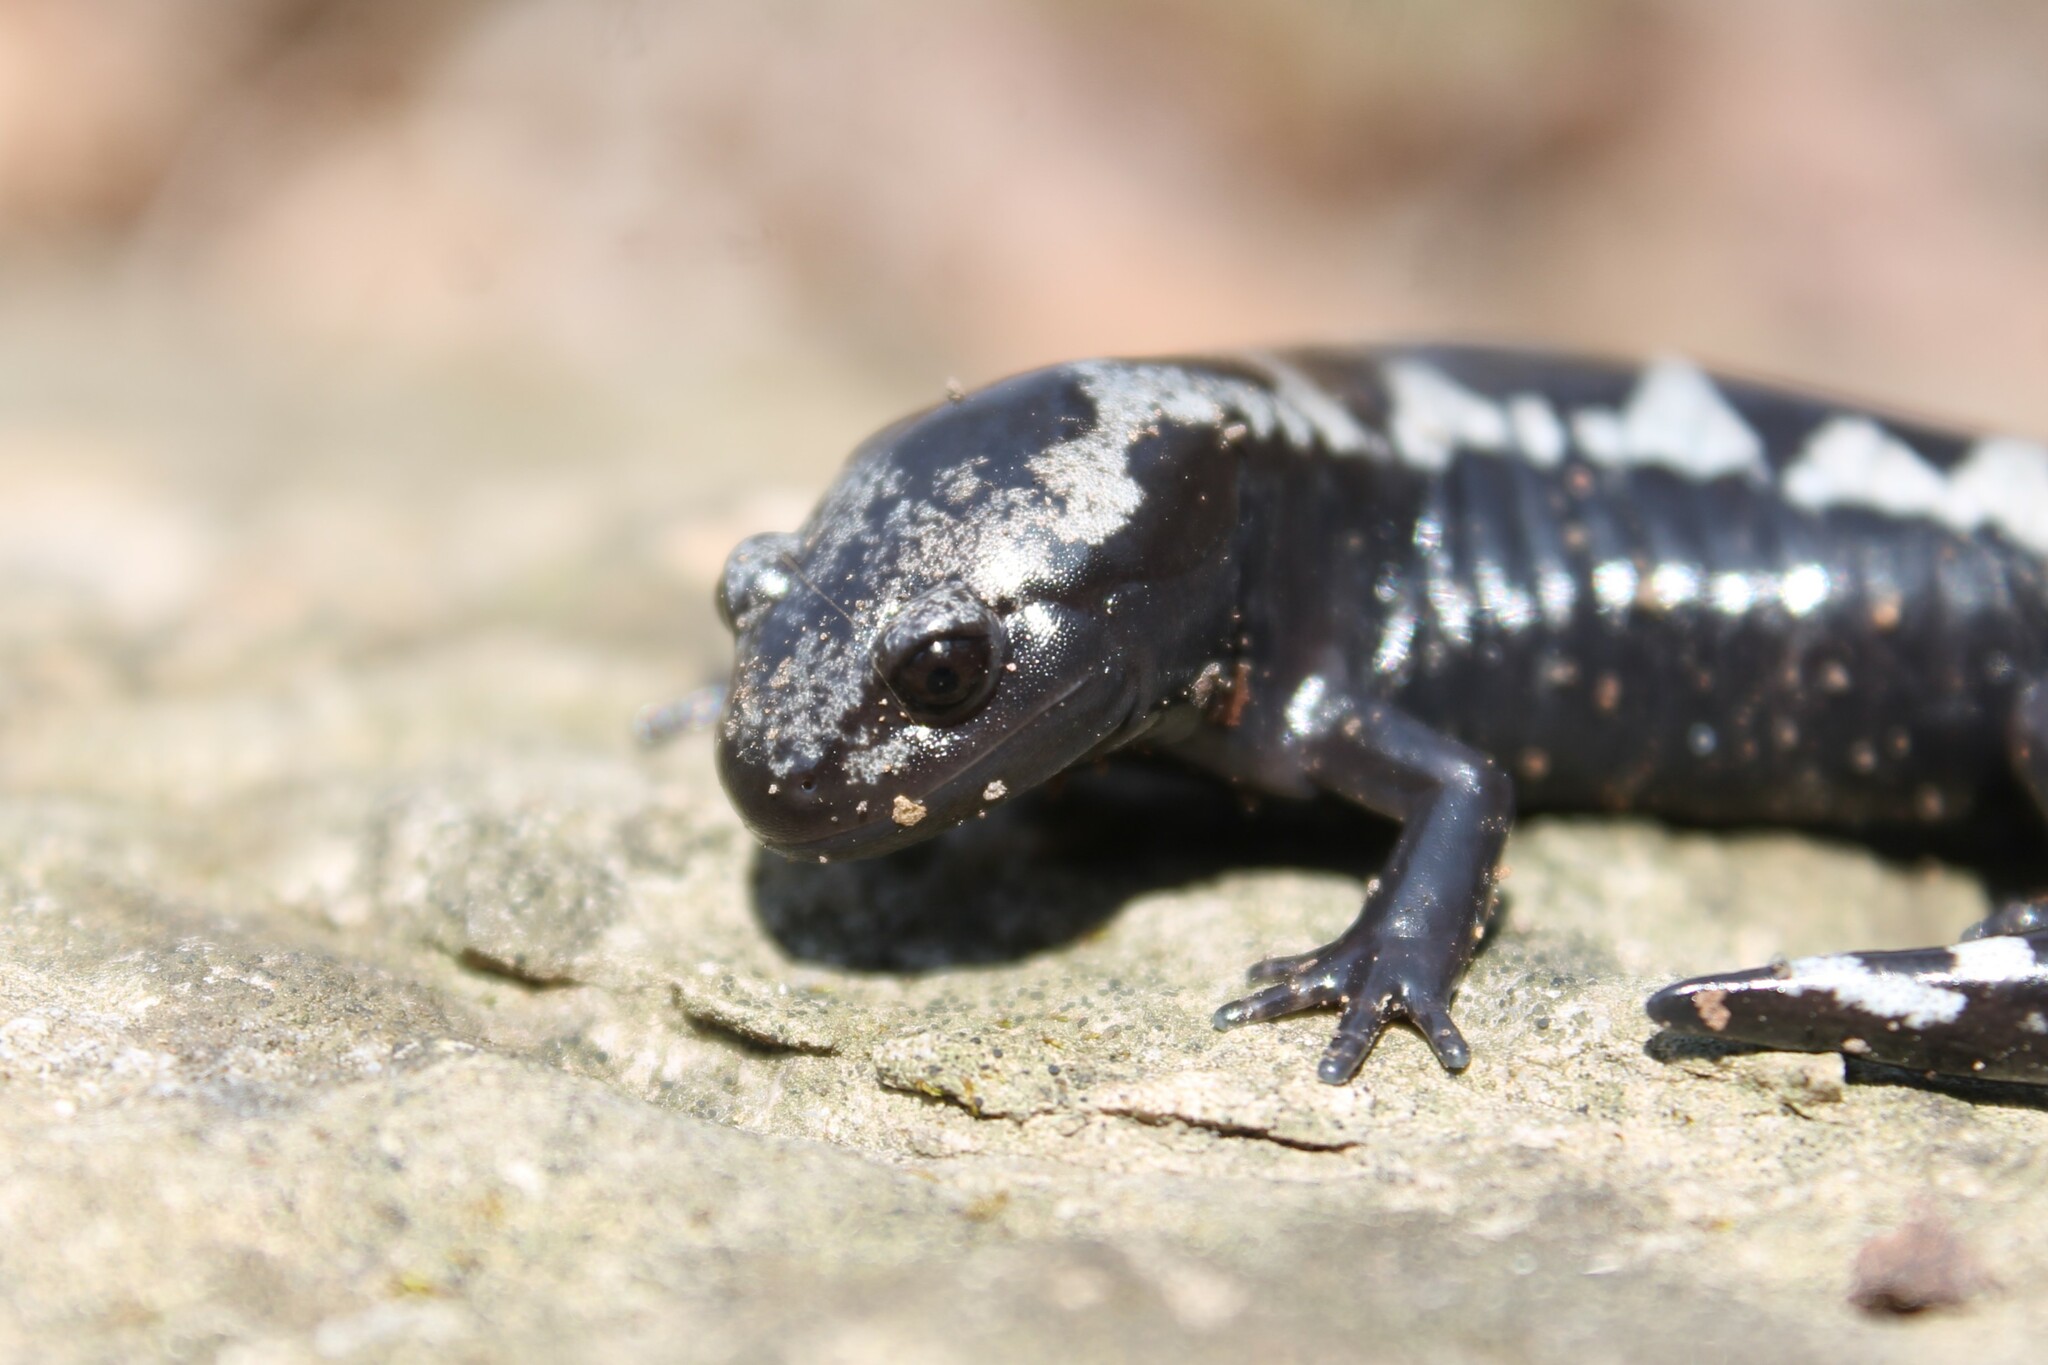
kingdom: Animalia
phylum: Chordata
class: Amphibia
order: Caudata
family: Ambystomatidae
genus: Ambystoma
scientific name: Ambystoma opacum
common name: Marbled salamander
